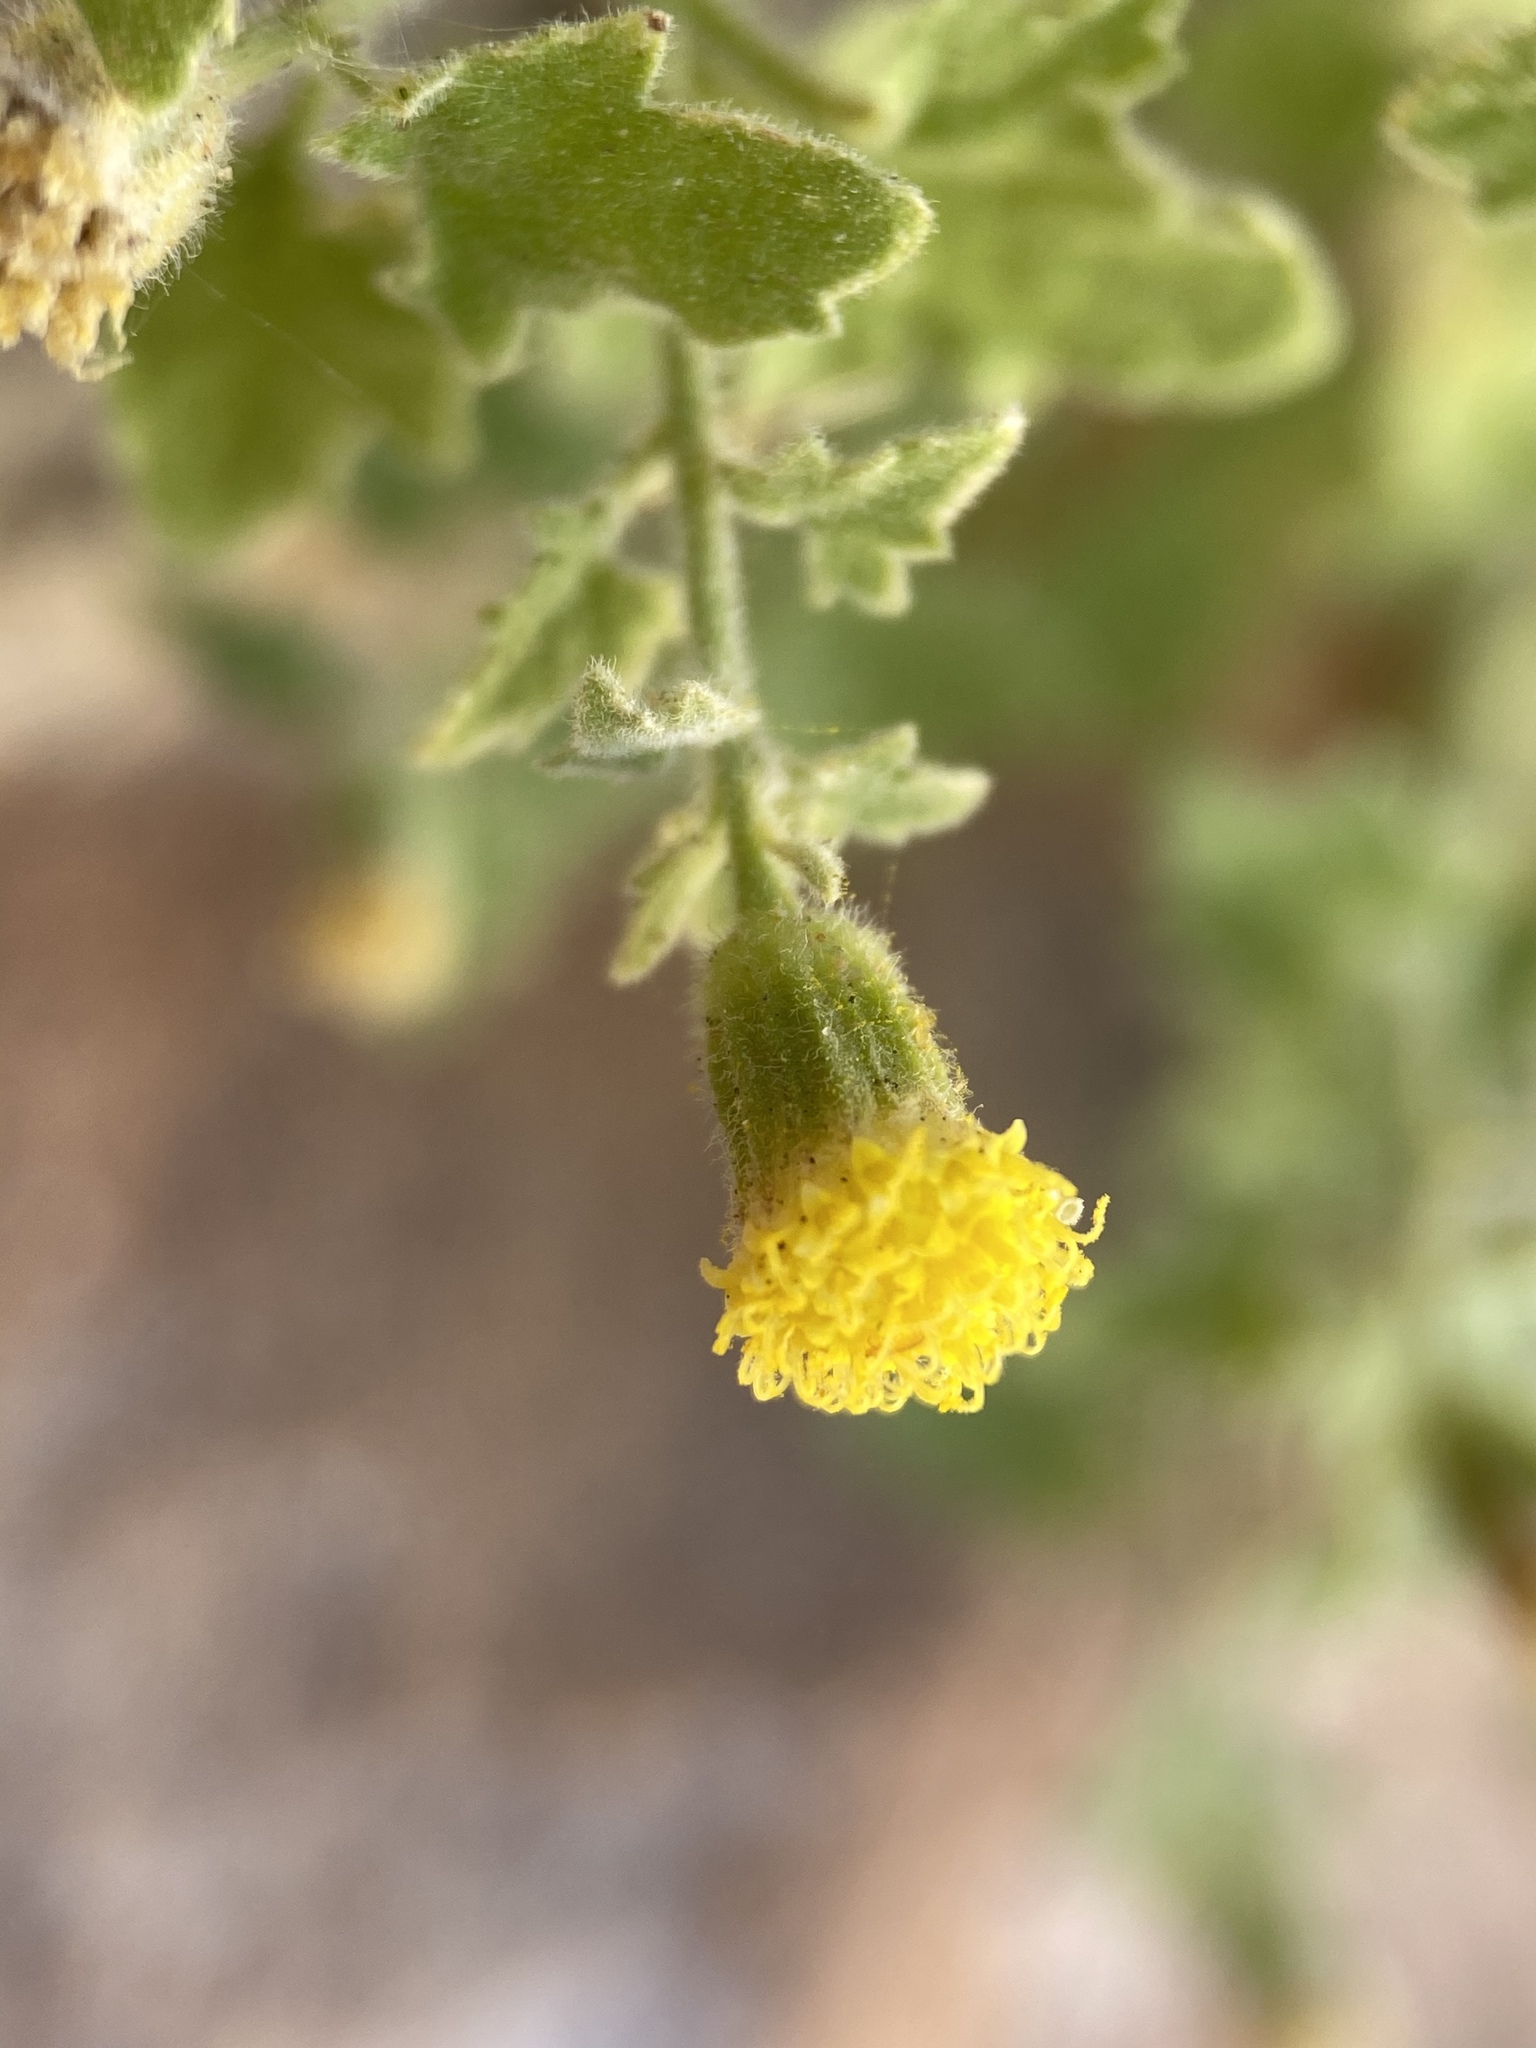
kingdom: Plantae
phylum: Tracheophyta
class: Magnoliopsida
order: Asterales
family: Asteraceae
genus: Laphamia
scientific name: Laphamia sanchezii
